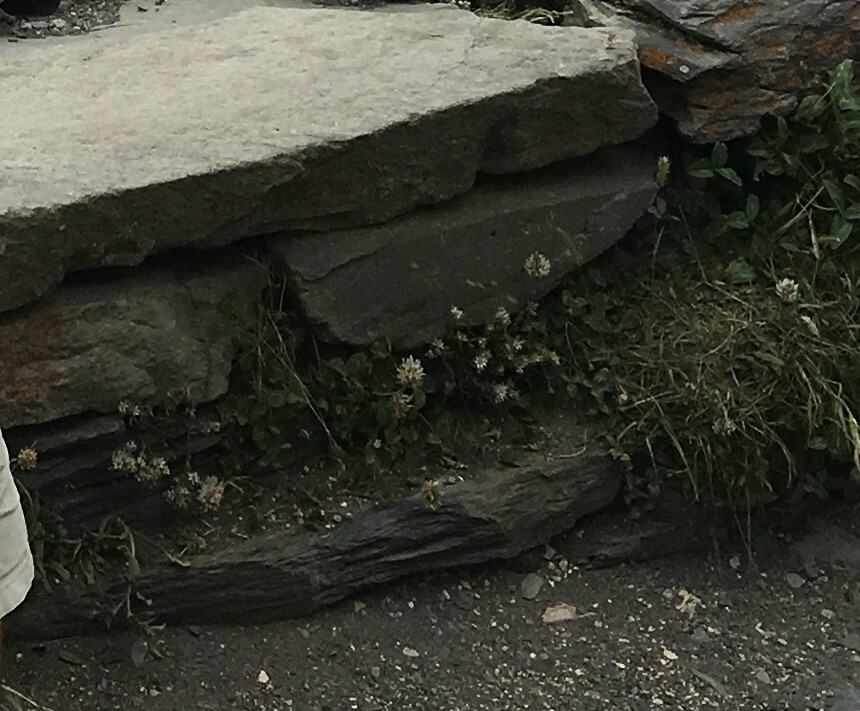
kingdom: Plantae
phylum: Tracheophyta
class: Magnoliopsida
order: Fabales
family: Fabaceae
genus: Trifolium
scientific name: Trifolium repens
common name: White clover
